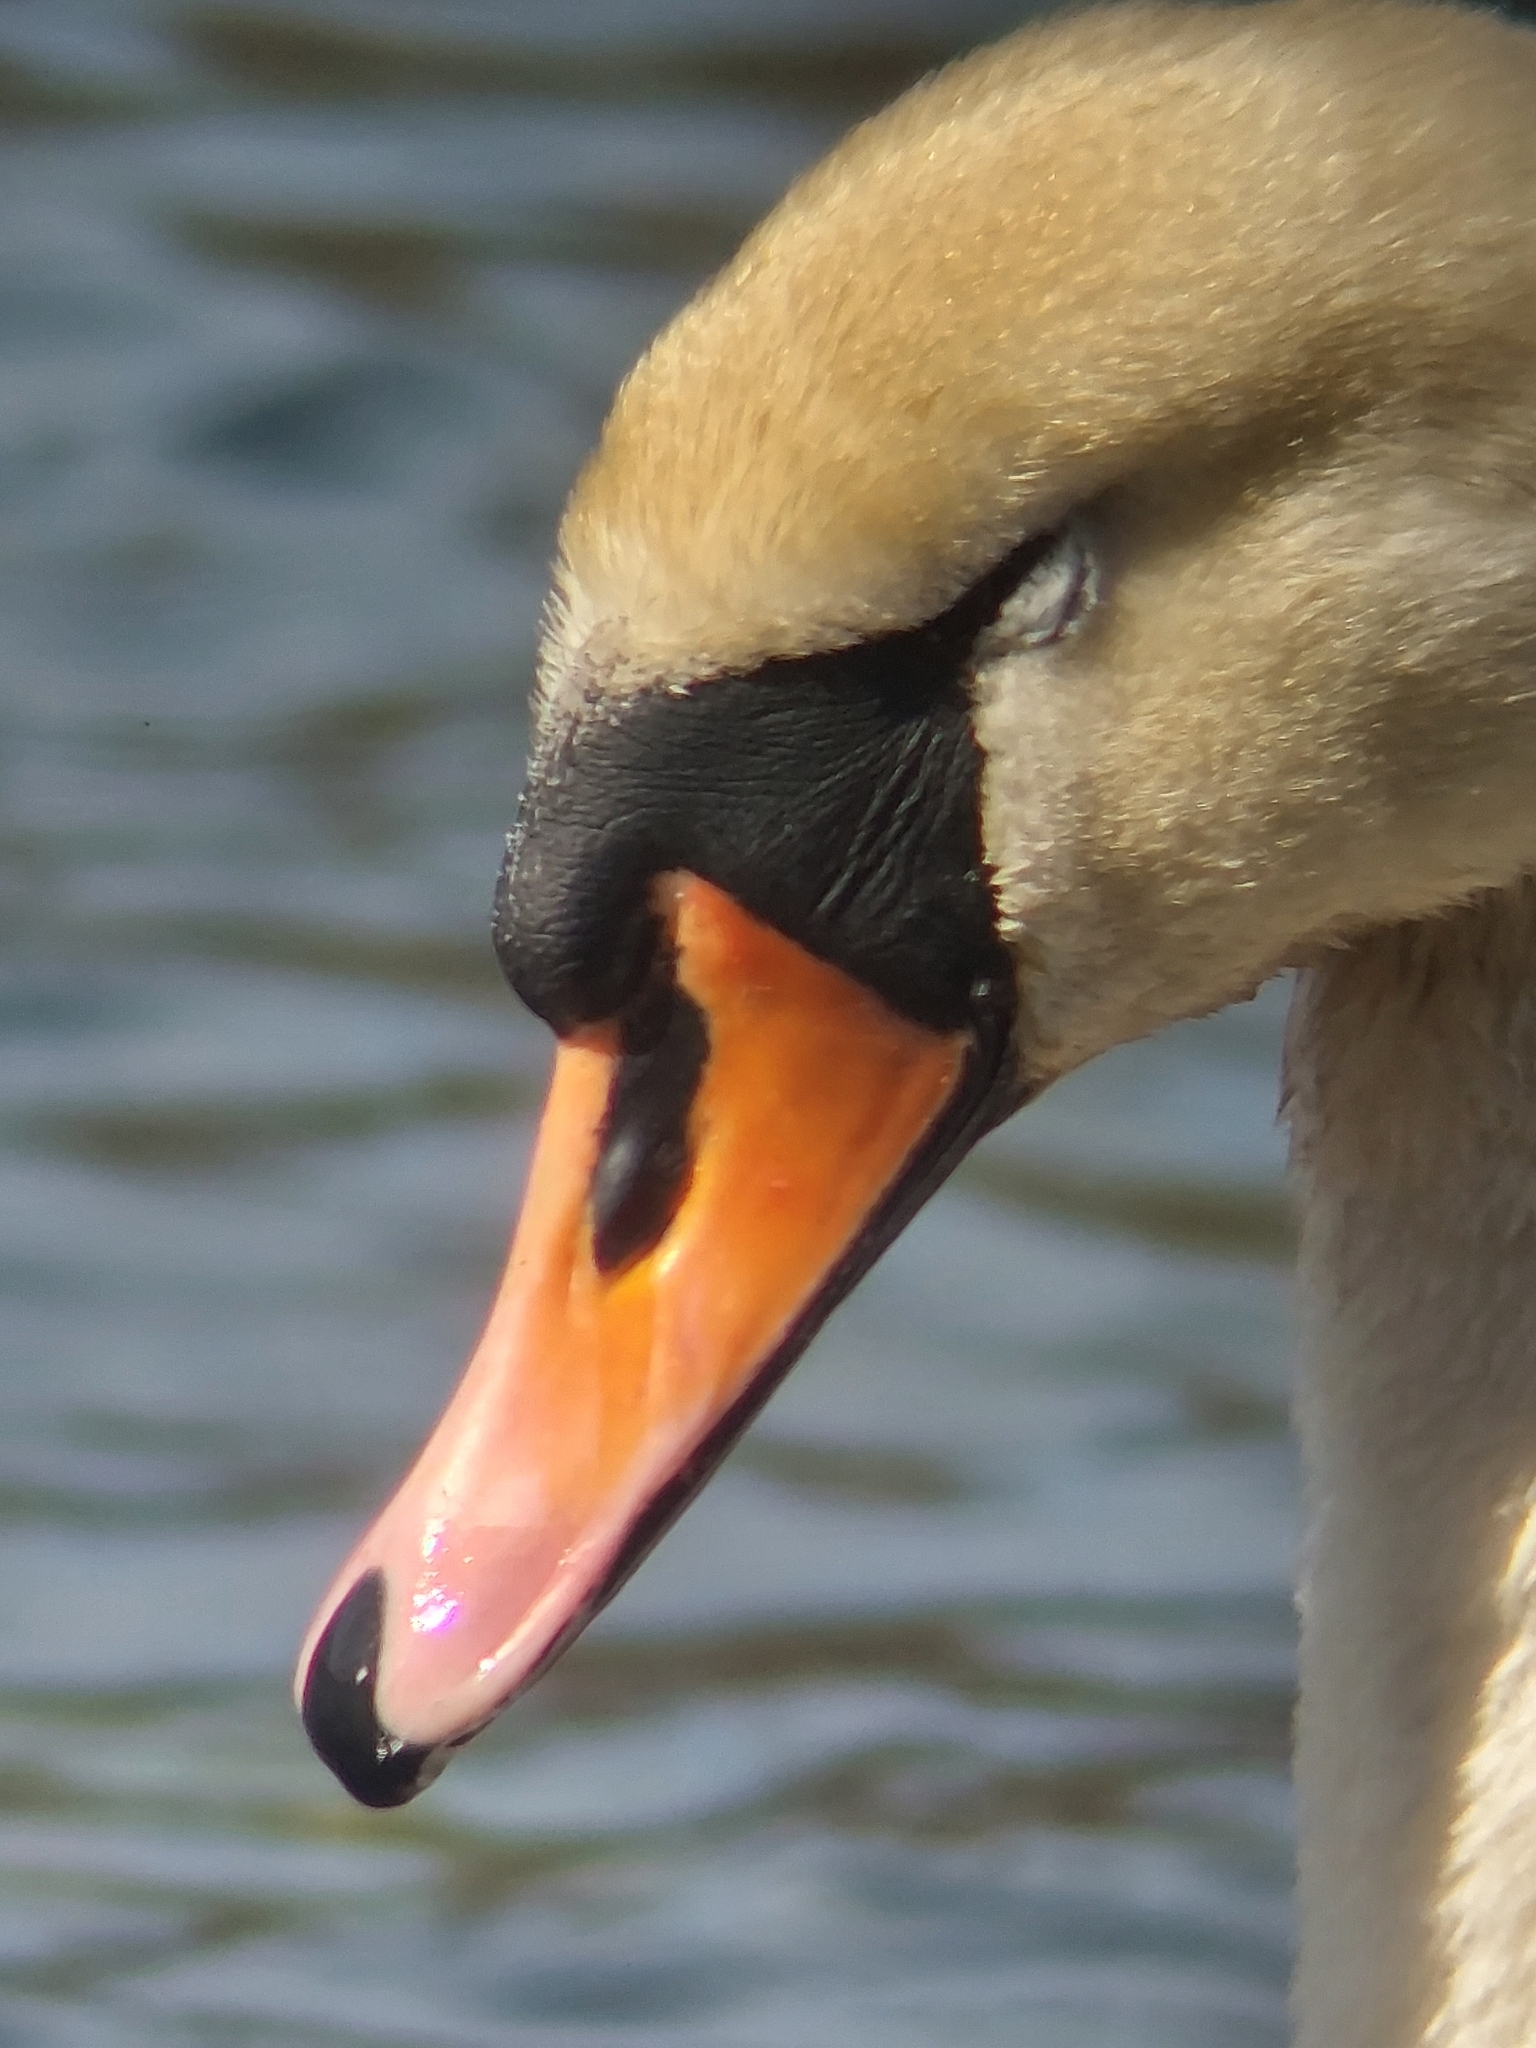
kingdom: Animalia
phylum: Chordata
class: Aves
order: Anseriformes
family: Anatidae
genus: Cygnus
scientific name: Cygnus olor
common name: Mute swan
